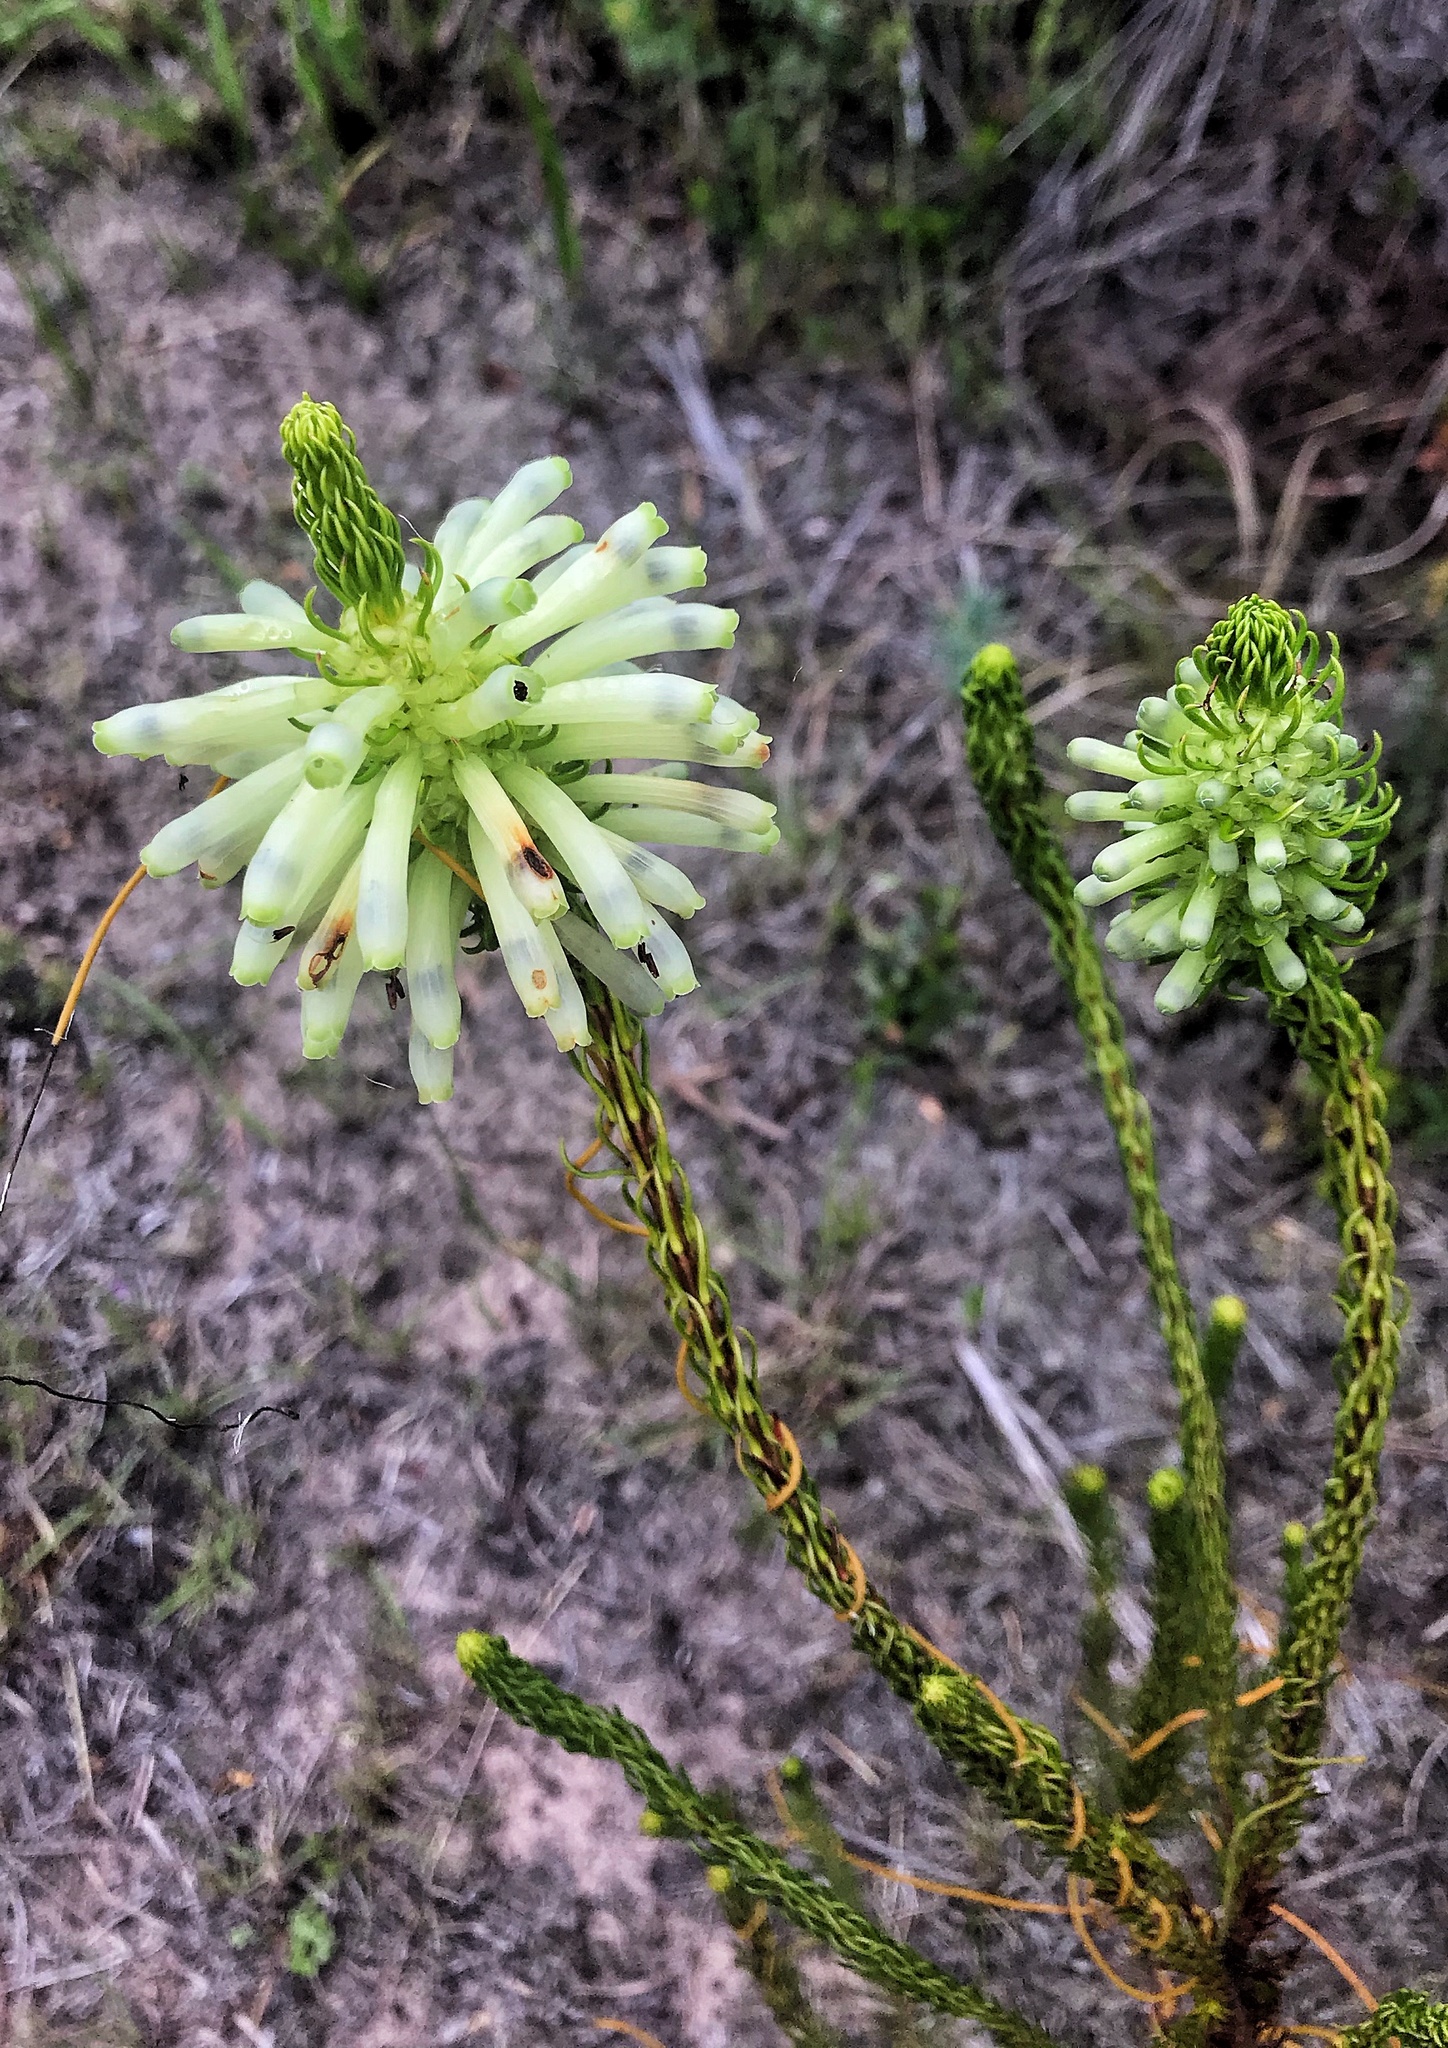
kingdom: Plantae
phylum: Tracheophyta
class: Magnoliopsida
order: Ericales
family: Ericaceae
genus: Erica
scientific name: Erica sessiliflora
